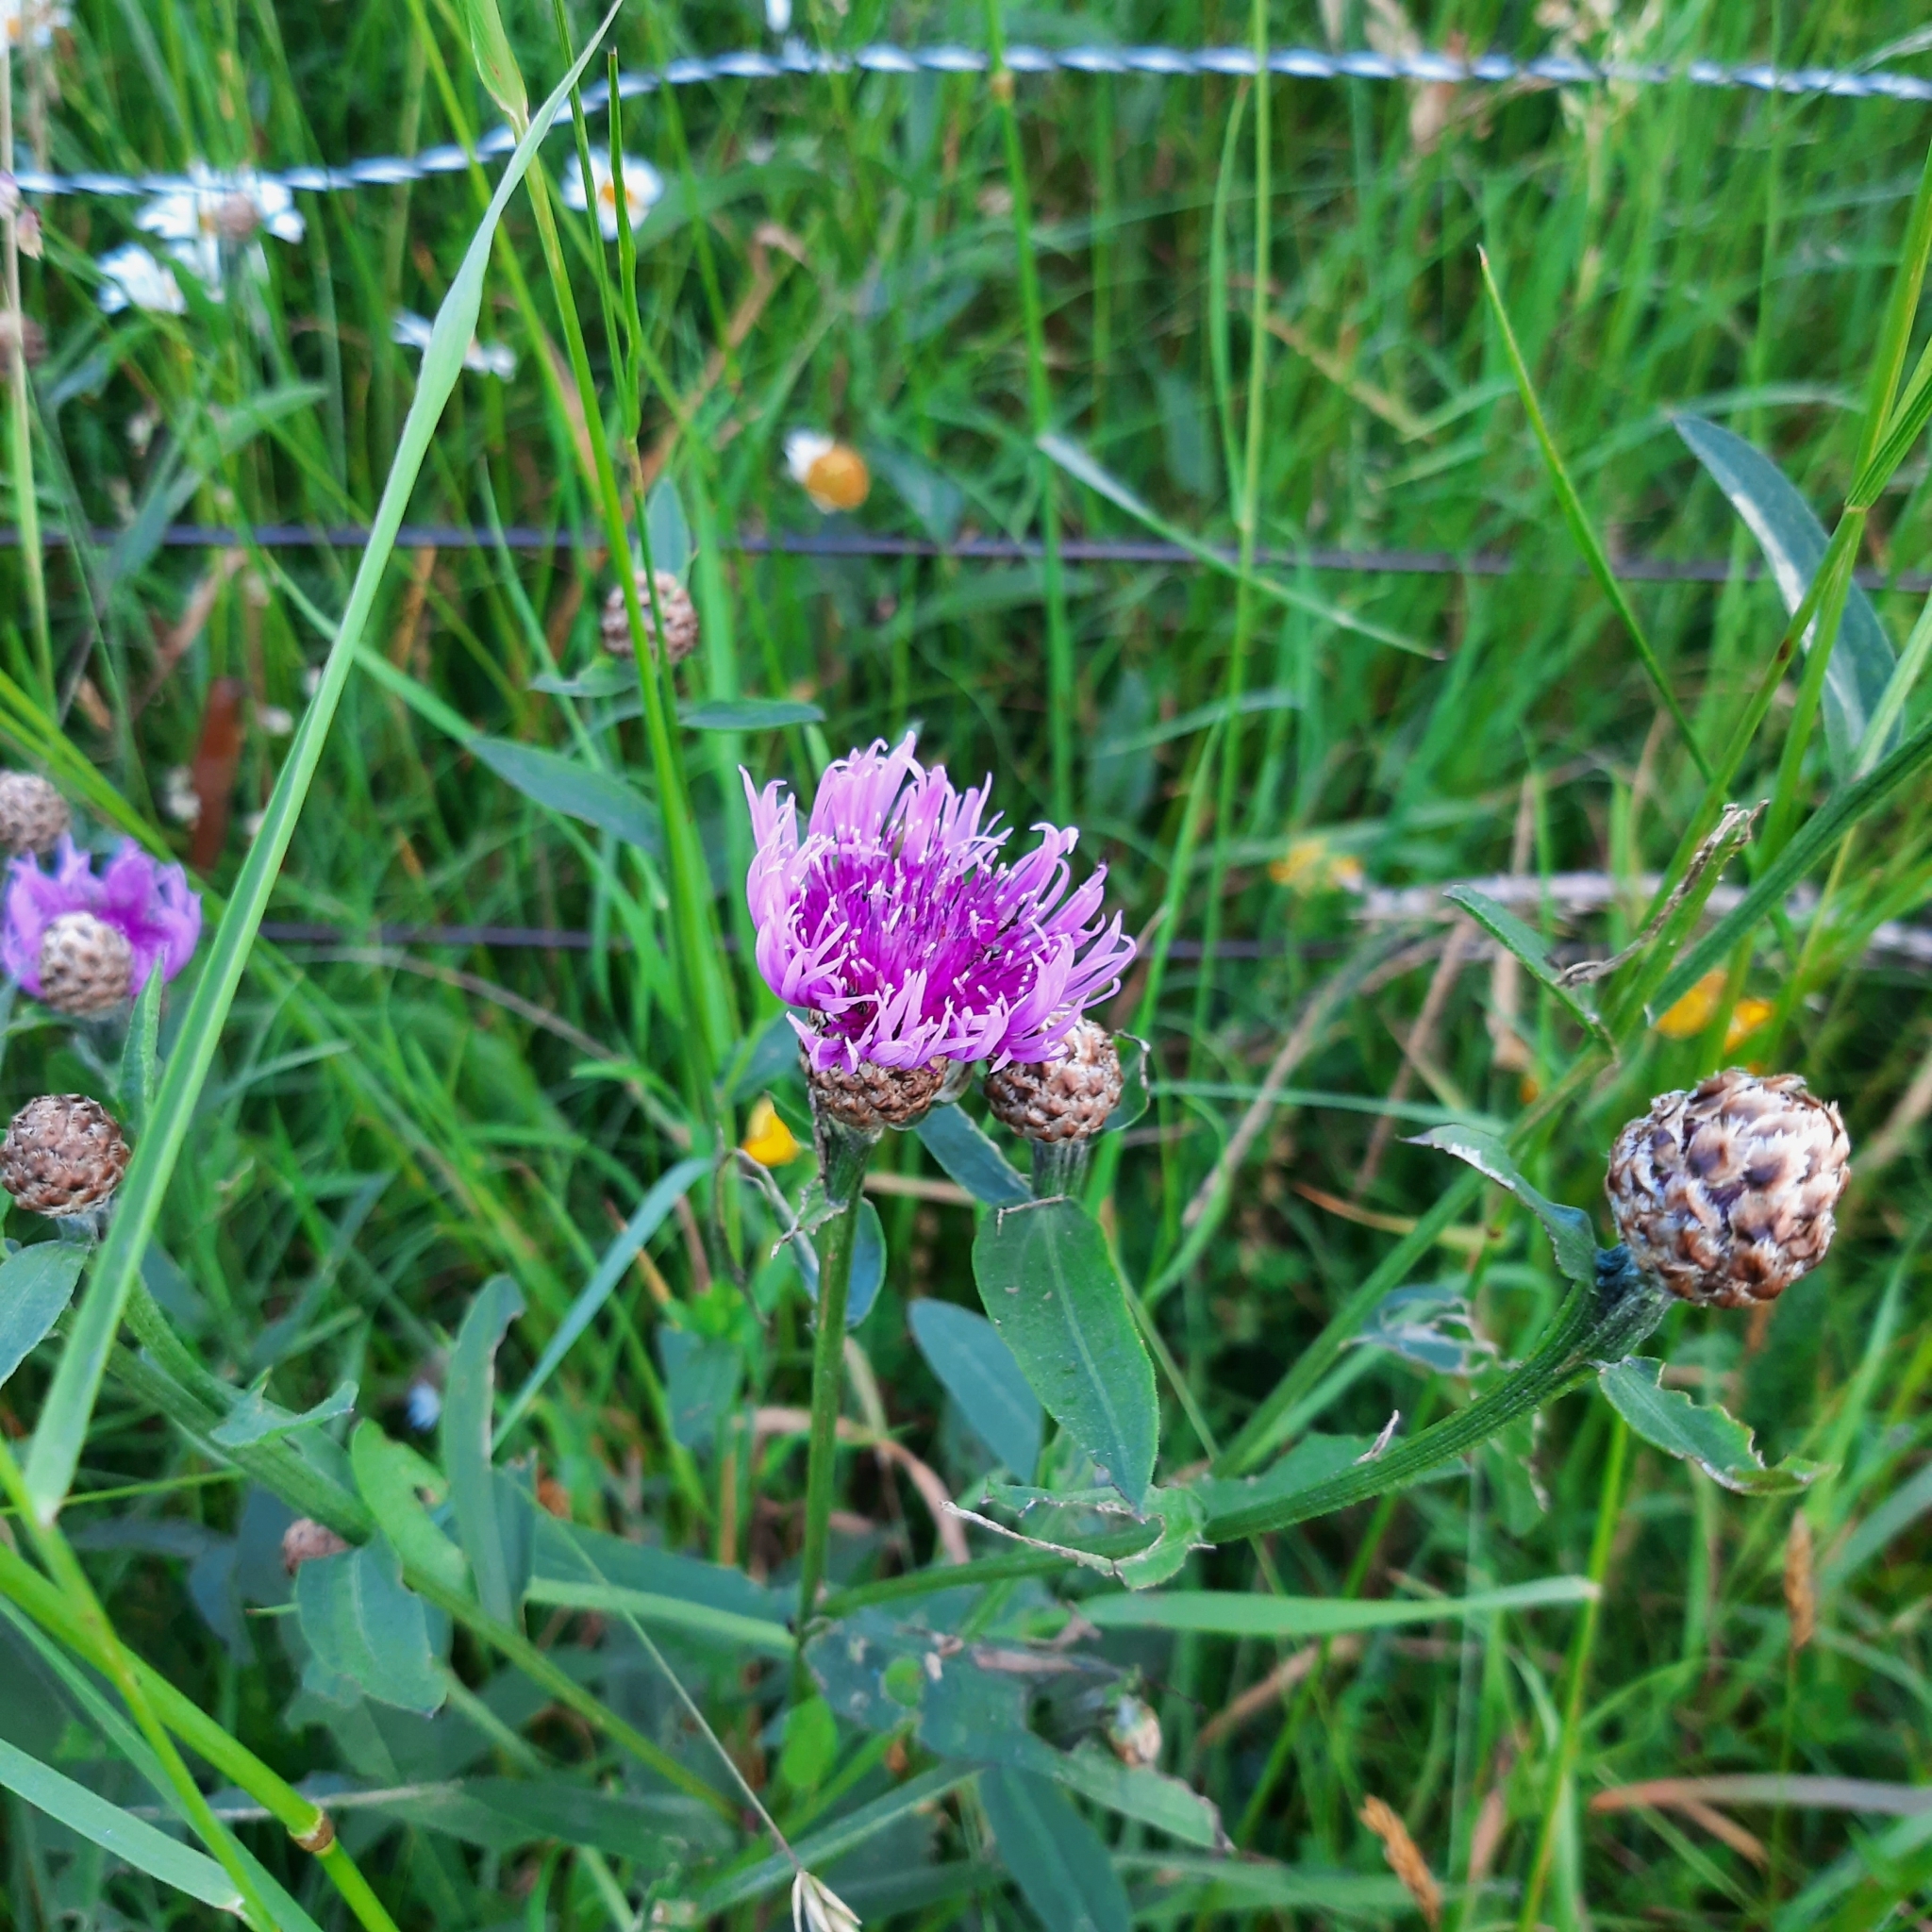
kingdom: Plantae
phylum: Tracheophyta
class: Magnoliopsida
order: Asterales
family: Asteraceae
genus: Centaurea
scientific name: Centaurea jacea
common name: Brown knapweed
